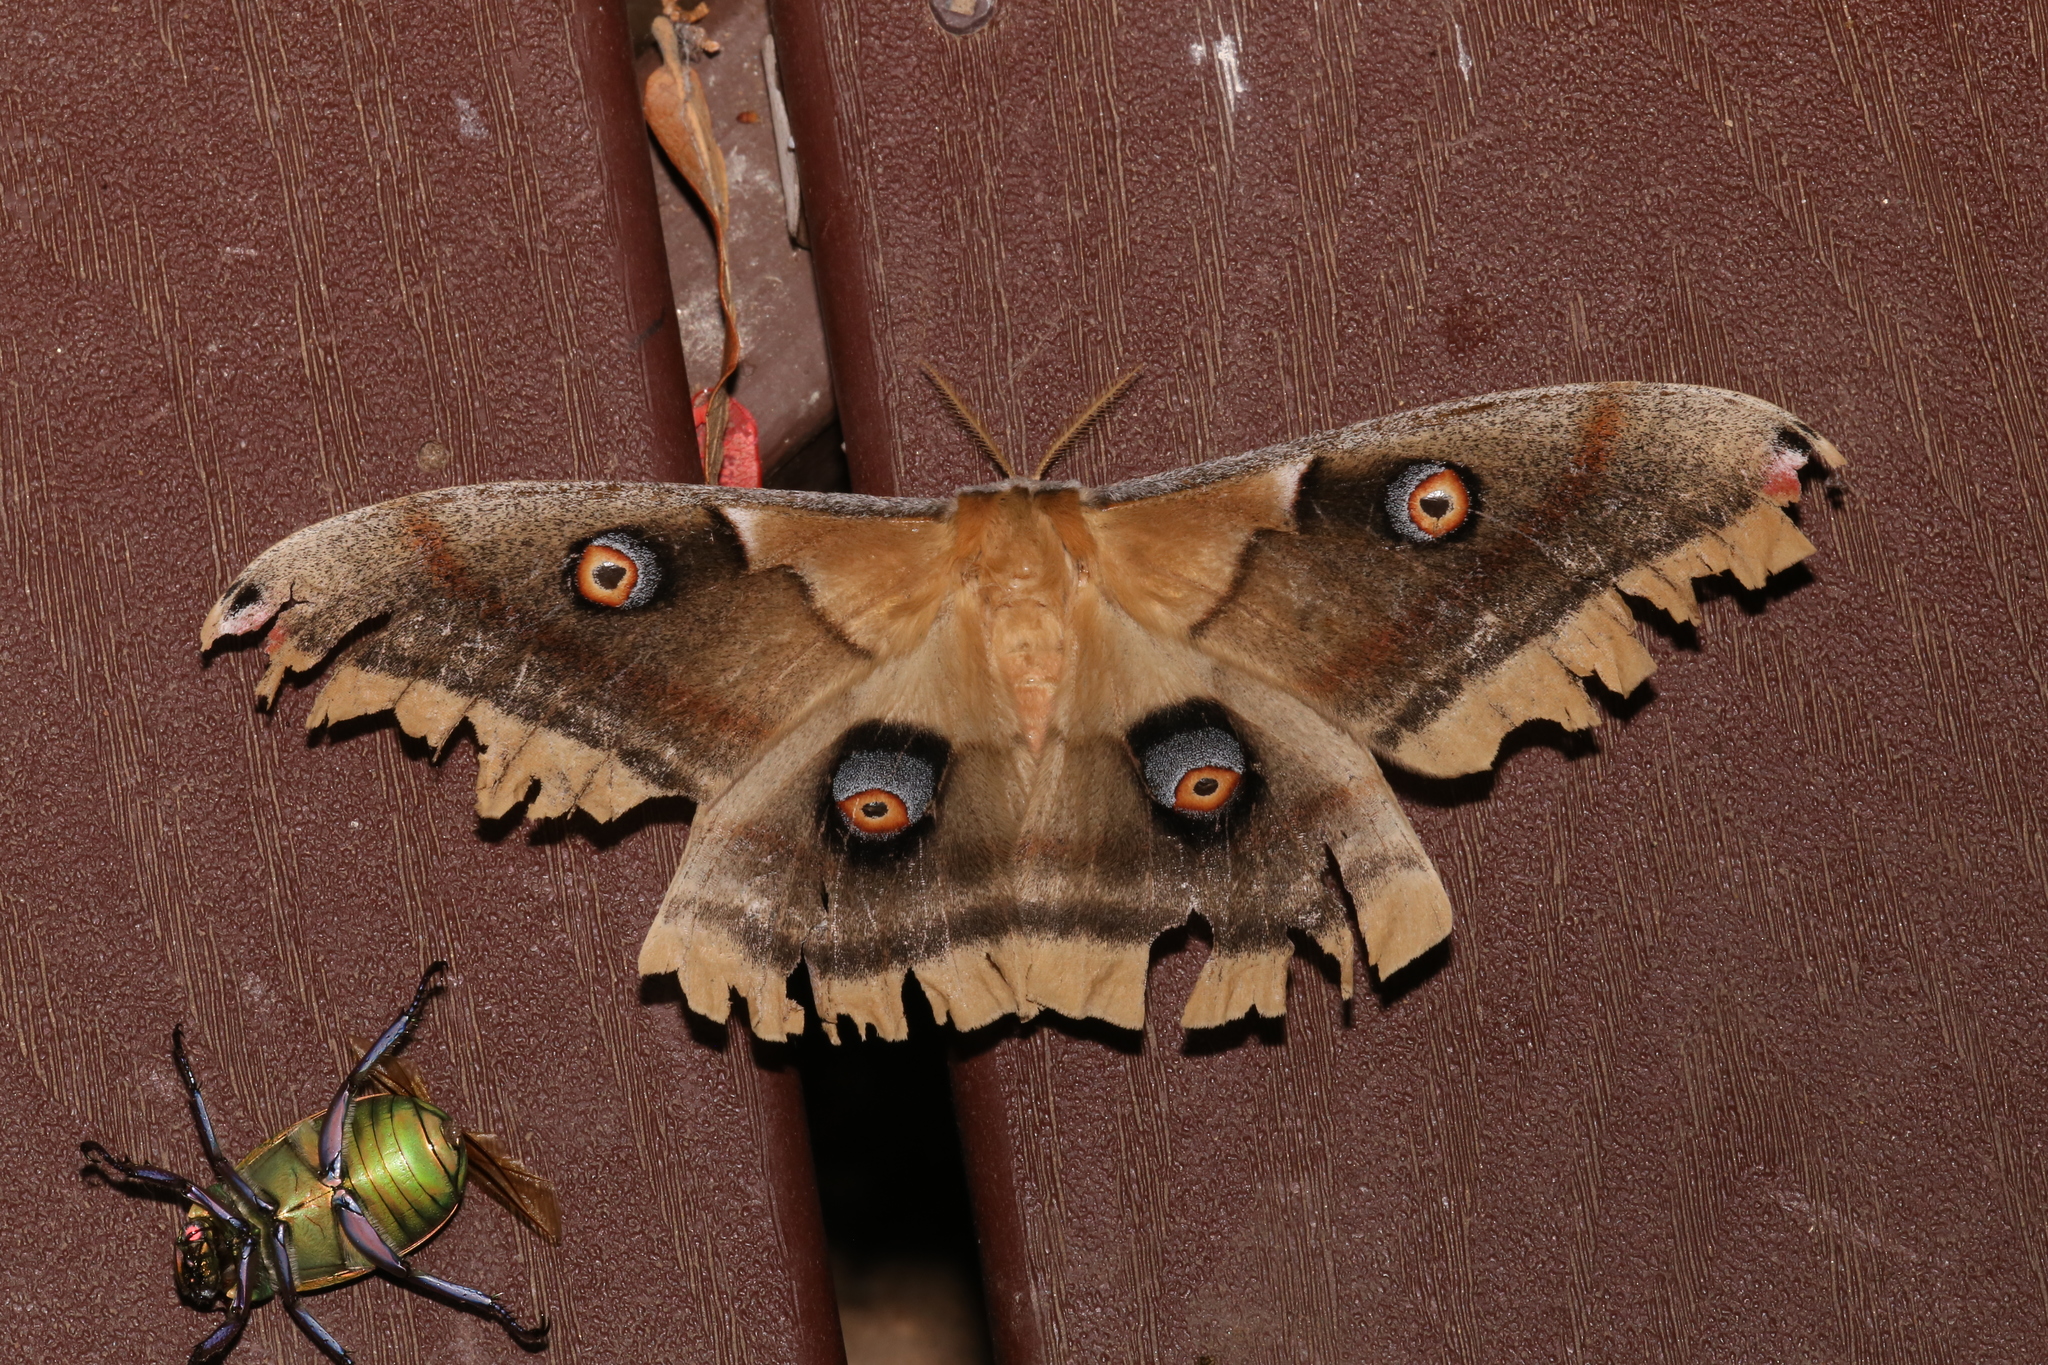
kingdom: Animalia
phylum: Arthropoda
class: Insecta
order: Lepidoptera
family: Saturniidae
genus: Antheraea
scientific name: Antheraea oculea
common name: Arizona polyphemus moth
